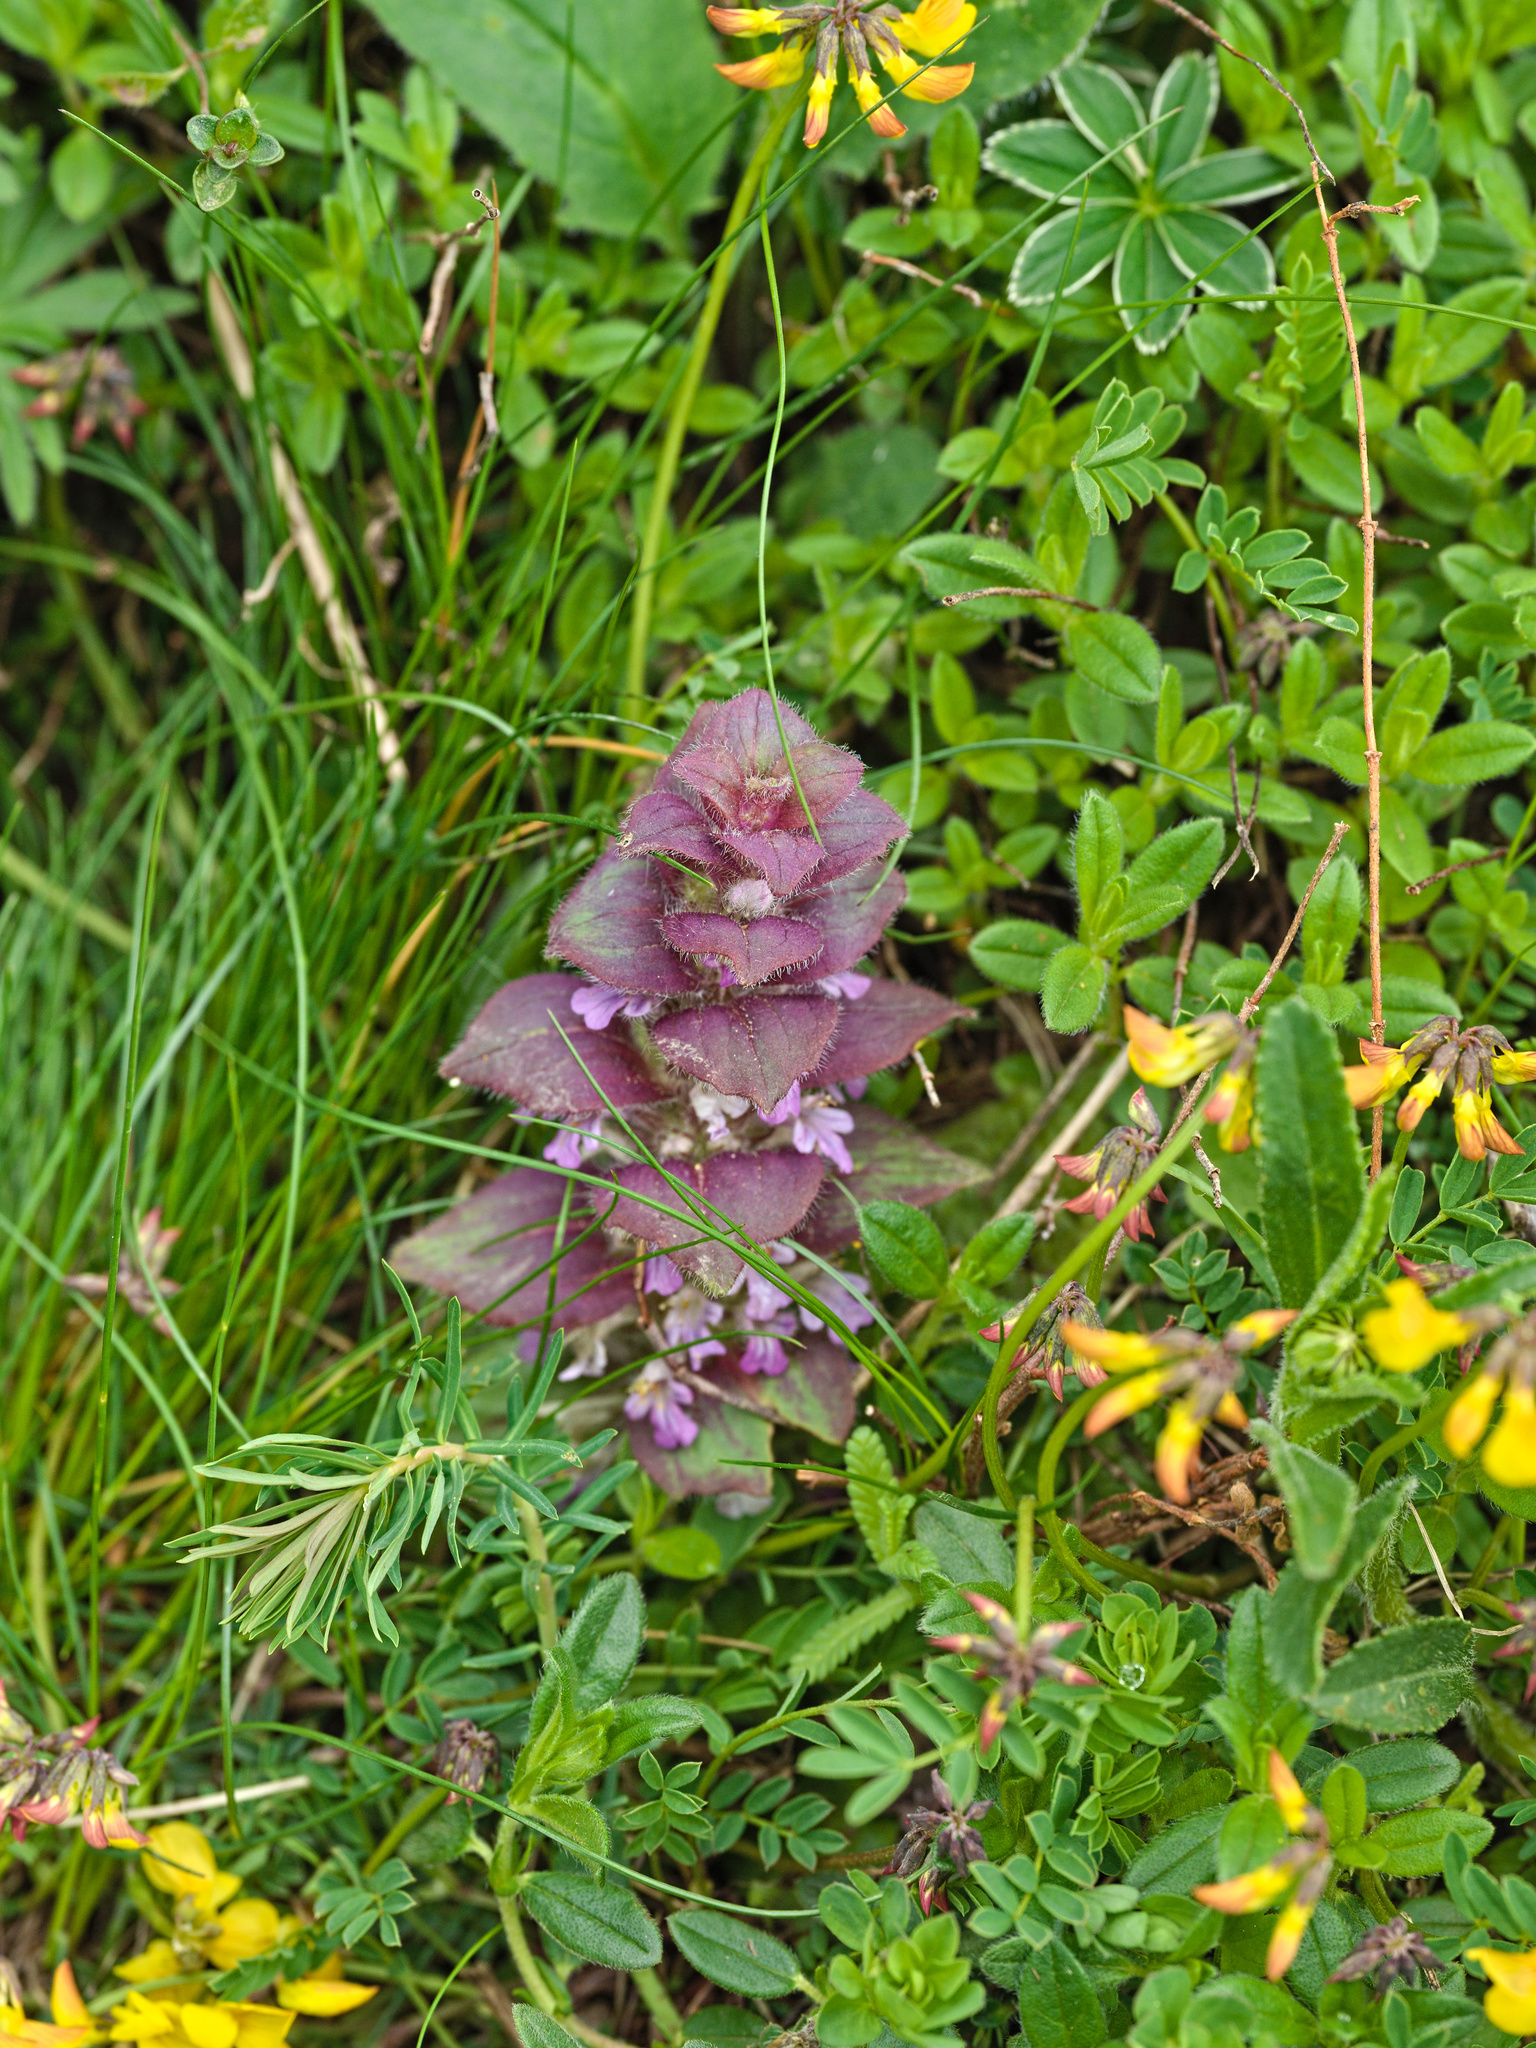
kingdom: Plantae
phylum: Tracheophyta
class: Magnoliopsida
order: Lamiales
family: Lamiaceae
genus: Ajuga
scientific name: Ajuga pyramidalis
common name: Pyramid bugle
